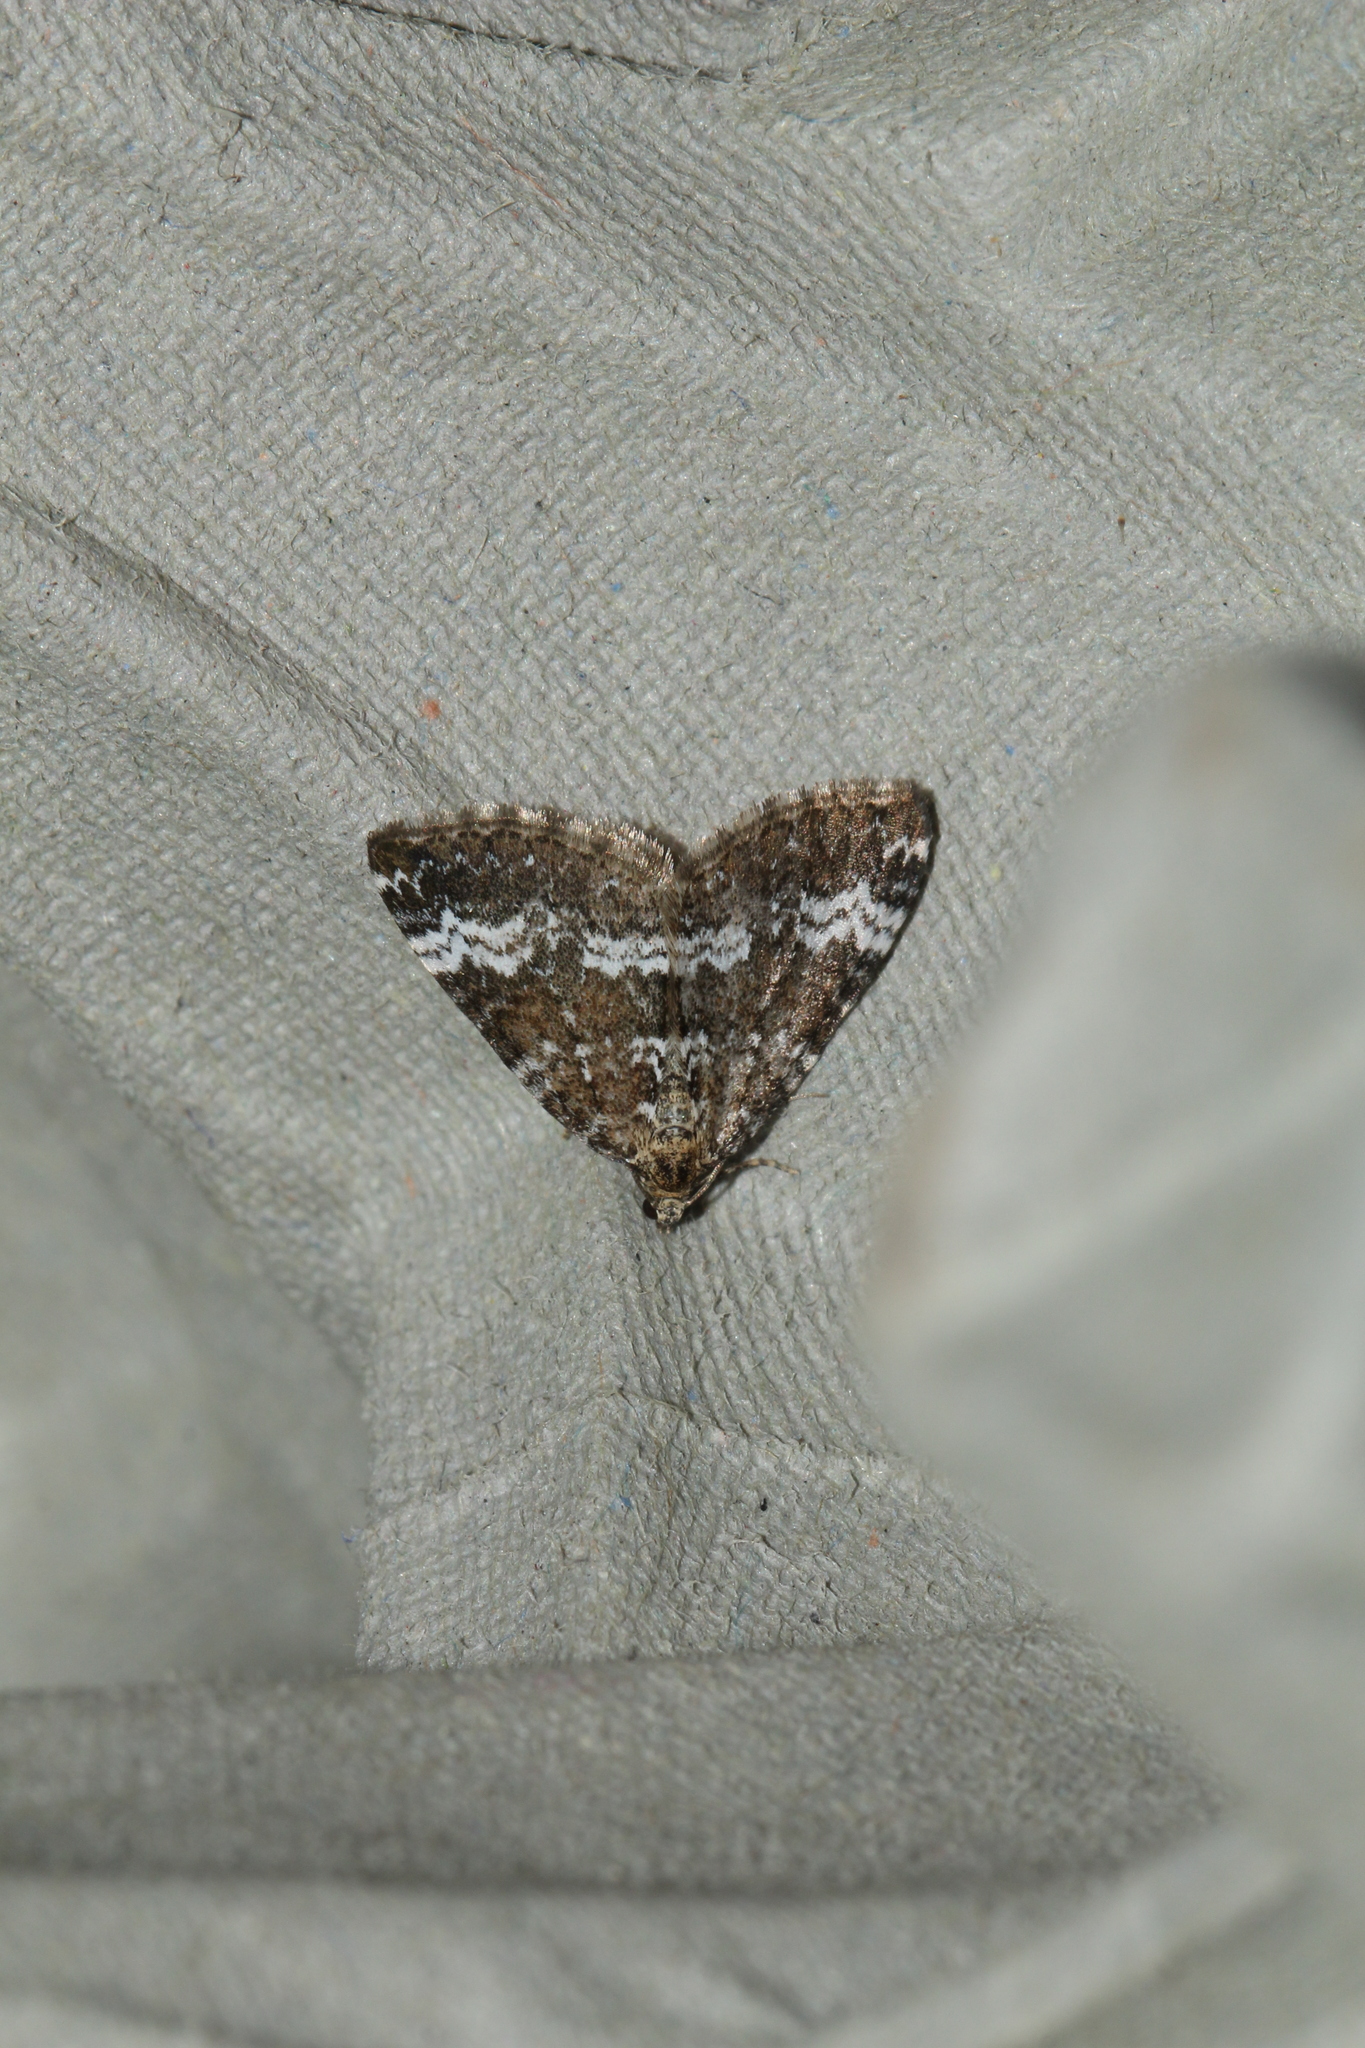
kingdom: Animalia
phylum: Arthropoda
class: Insecta
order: Lepidoptera
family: Geometridae
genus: Perizoma
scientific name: Perizoma alchemillata
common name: Small rivulet
